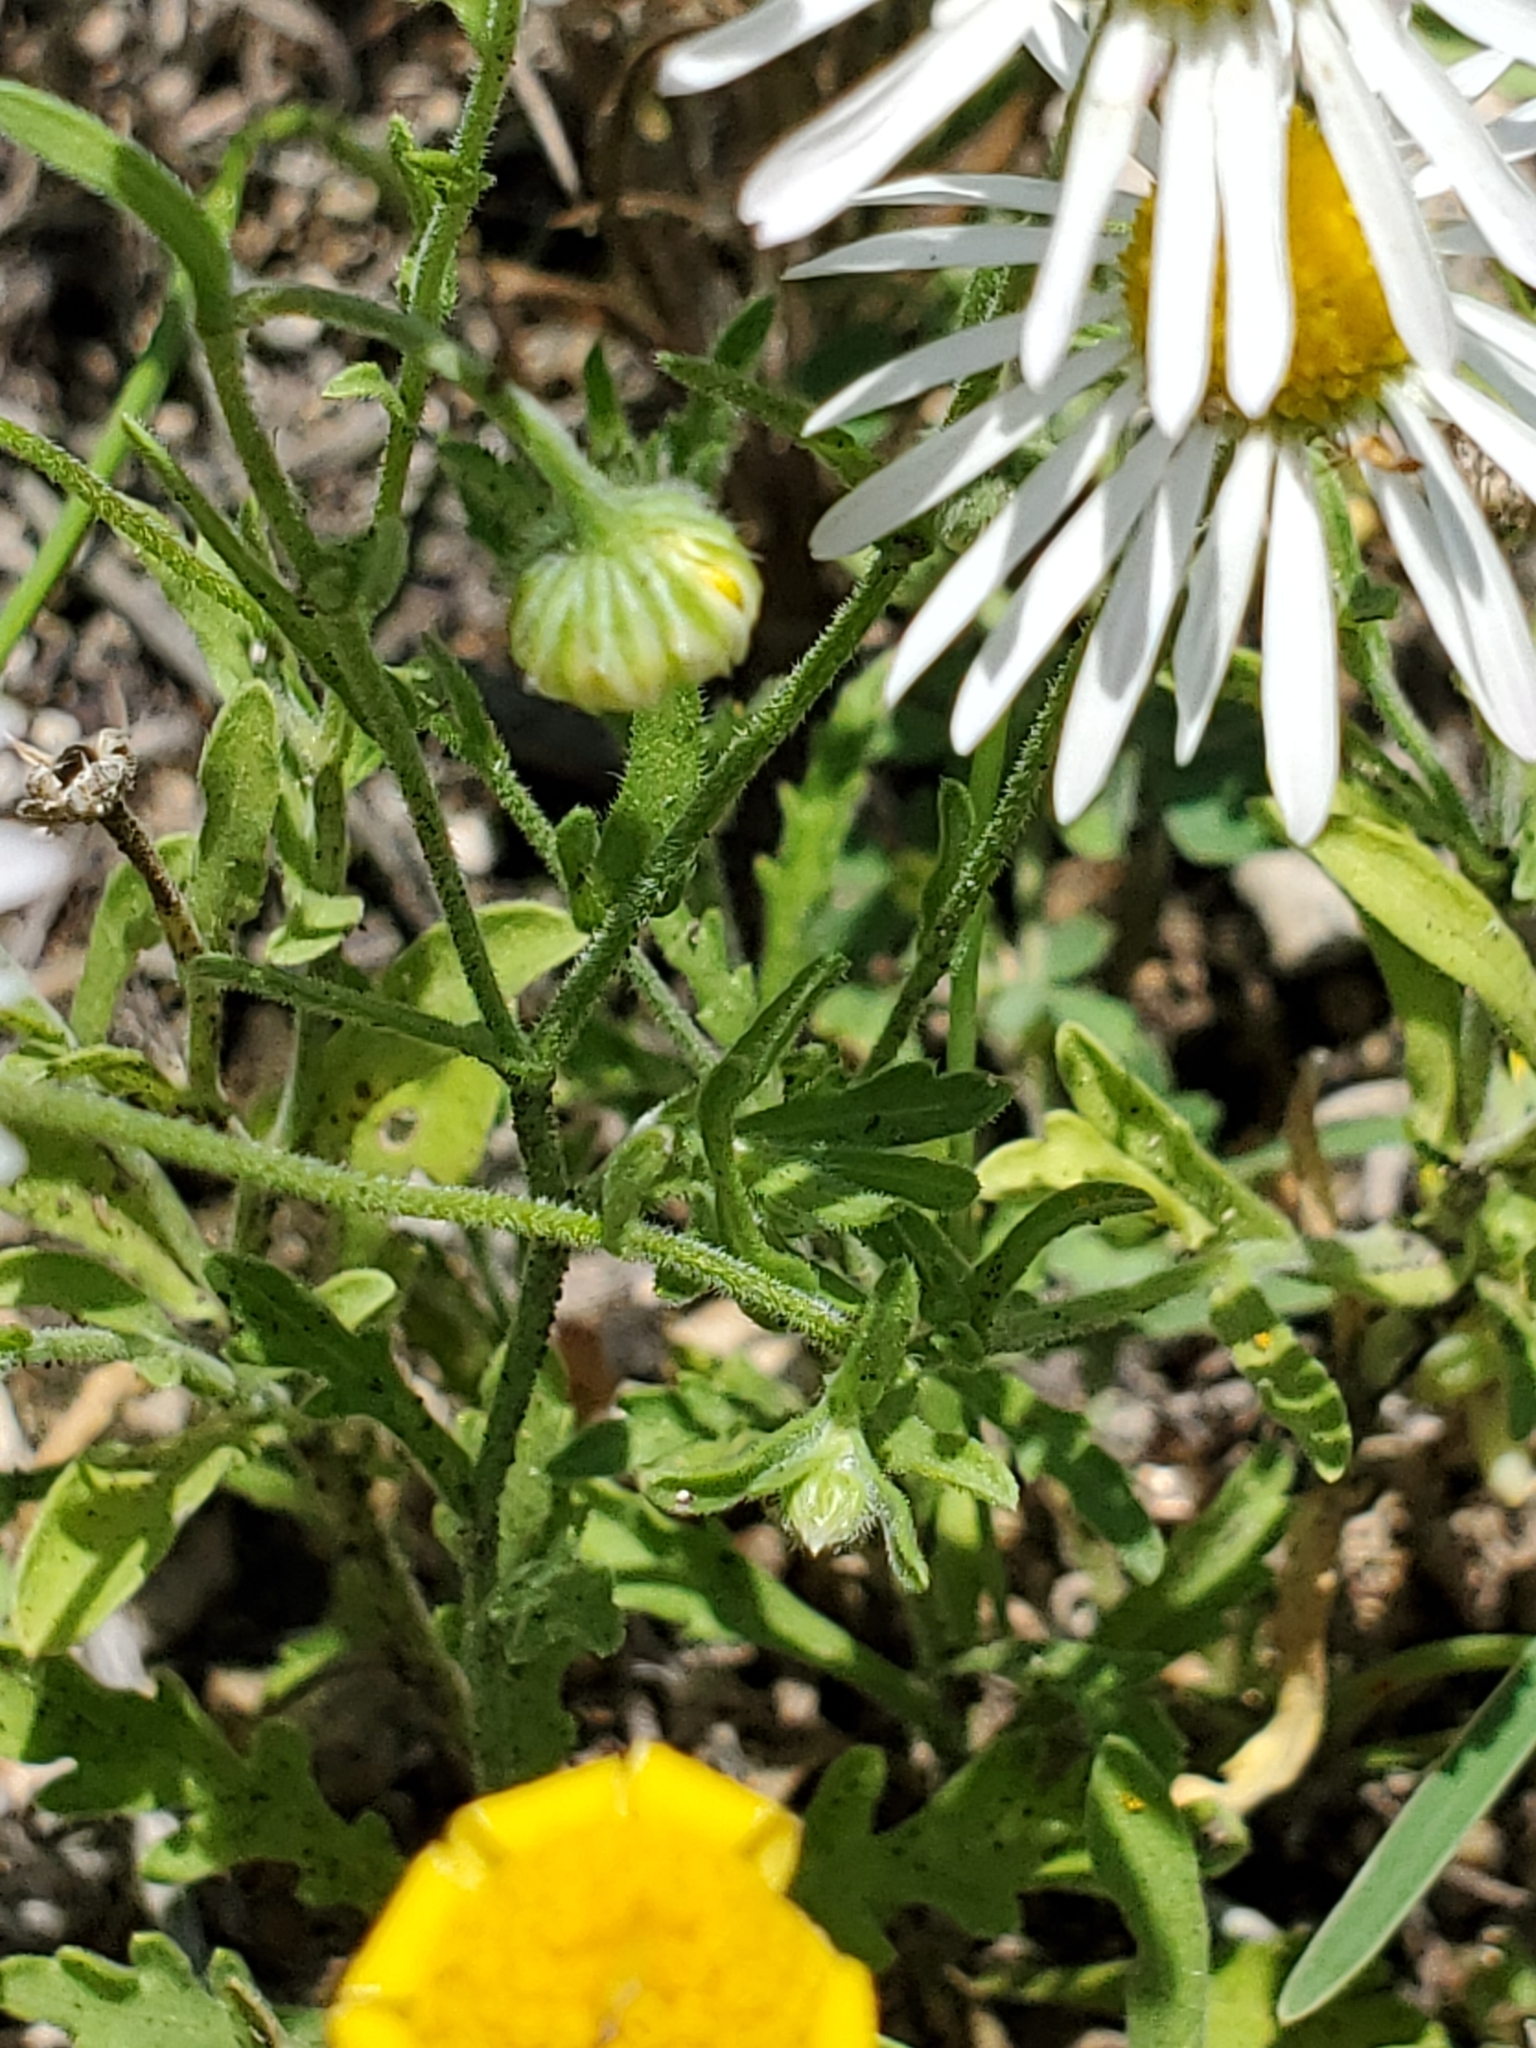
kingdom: Plantae
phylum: Tracheophyta
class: Magnoliopsida
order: Asterales
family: Asteraceae
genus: Erigeron
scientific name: Erigeron modestus
